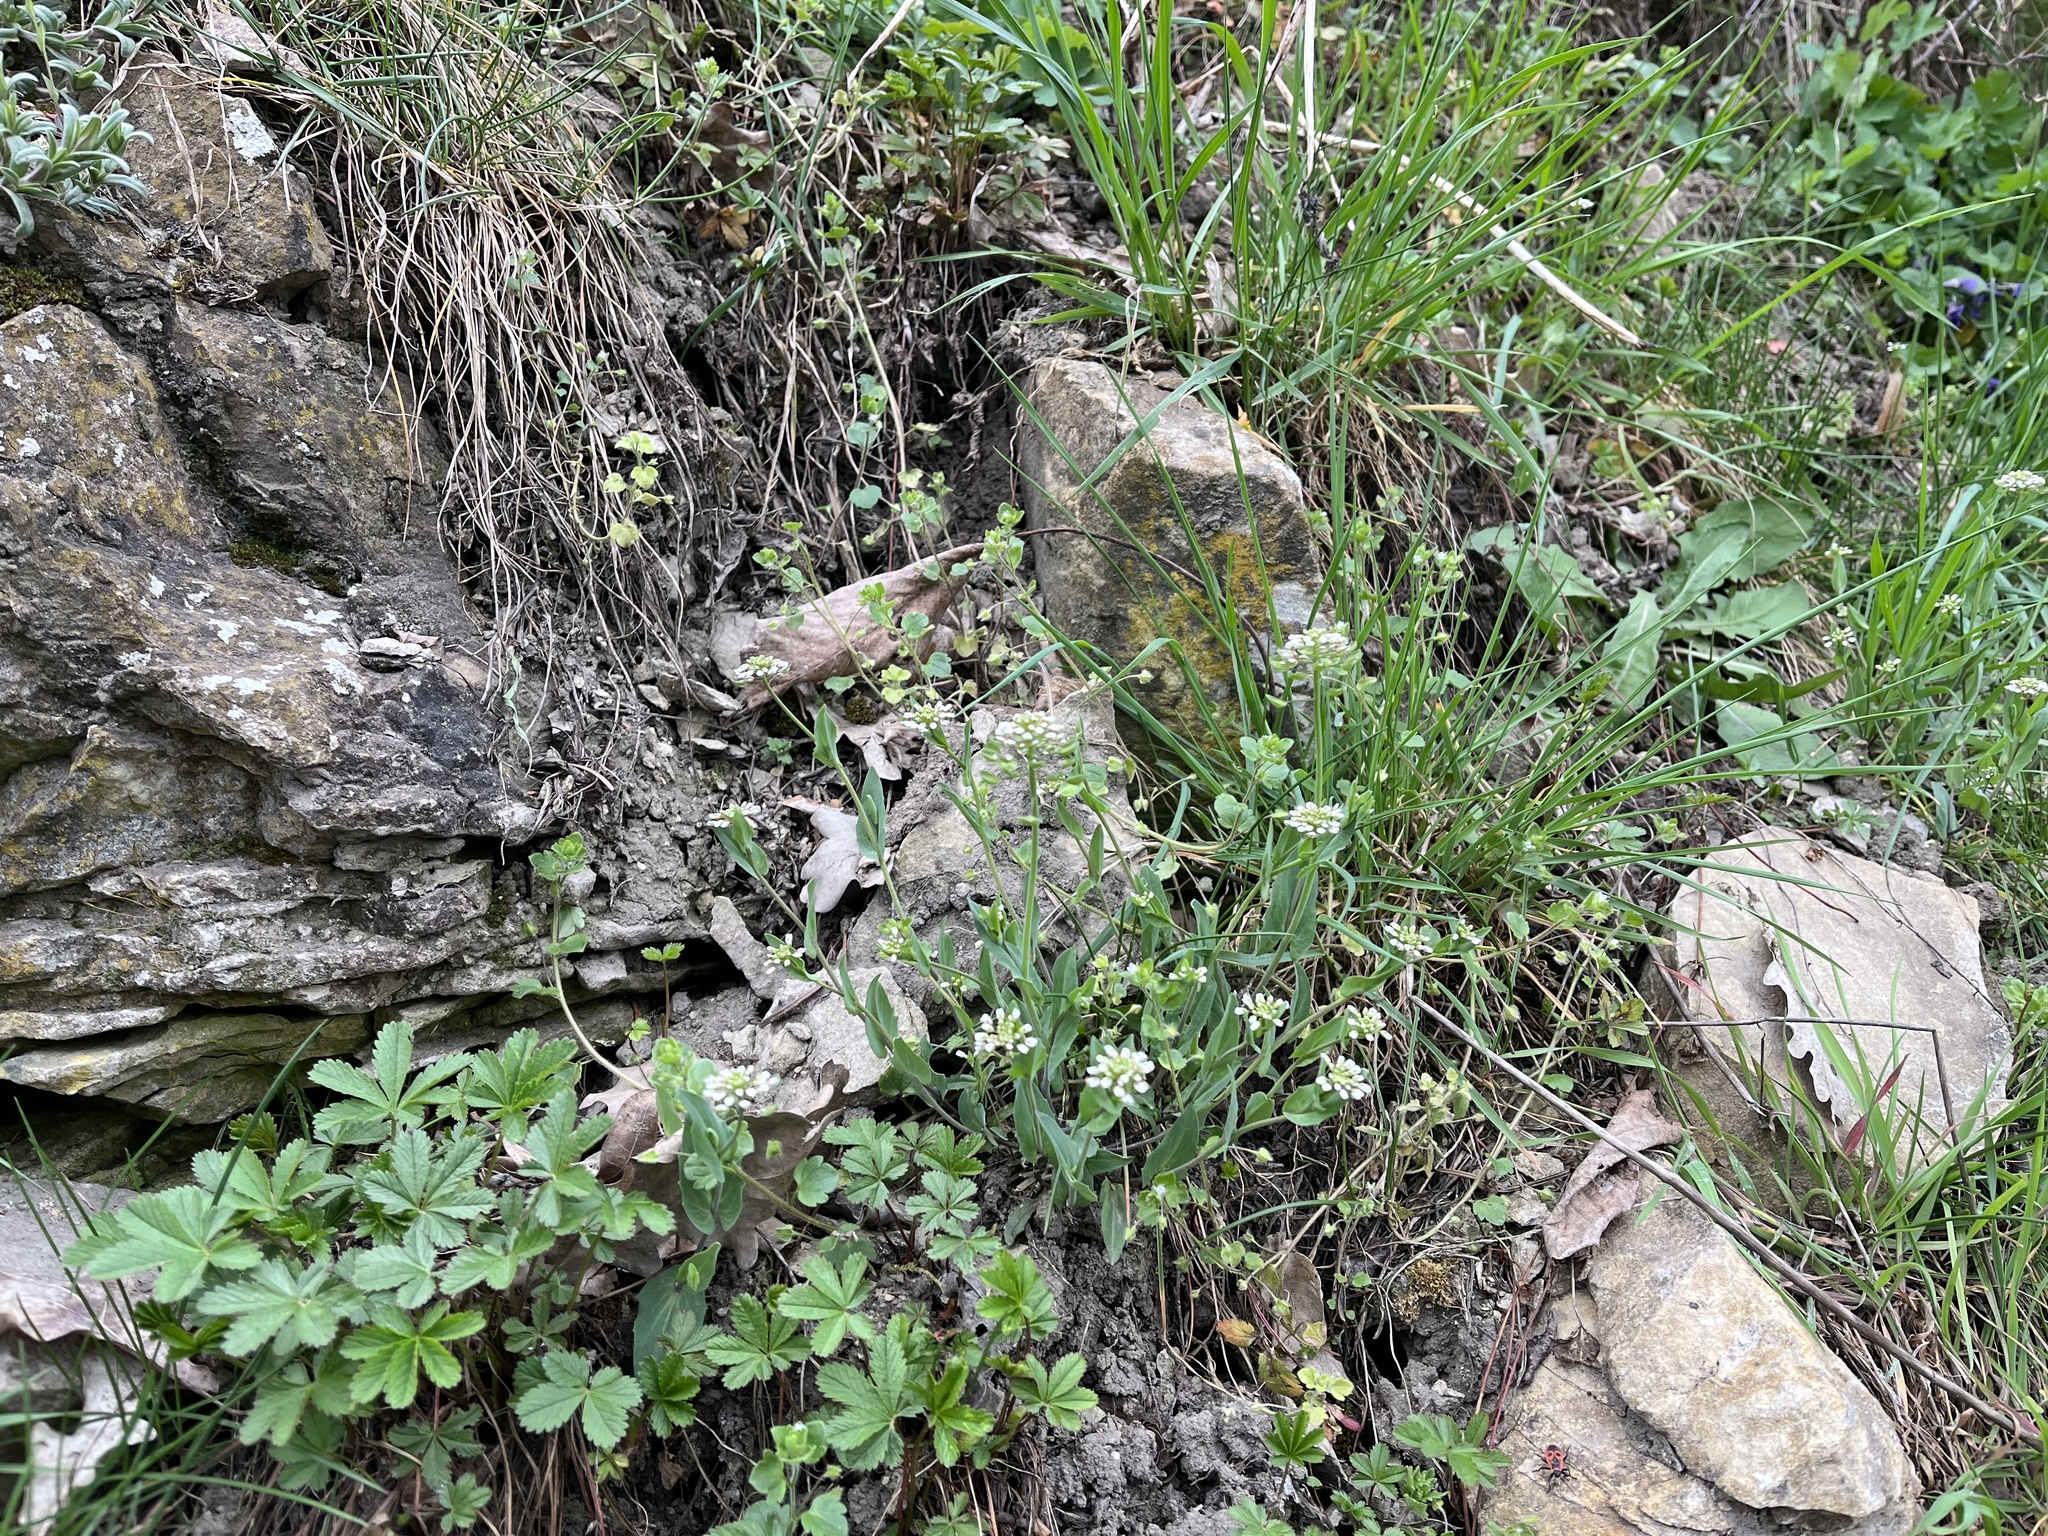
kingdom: Plantae
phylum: Tracheophyta
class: Magnoliopsida
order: Brassicales
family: Brassicaceae
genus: Noccaea
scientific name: Noccaea perfoliata
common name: Perfoliate pennycress
